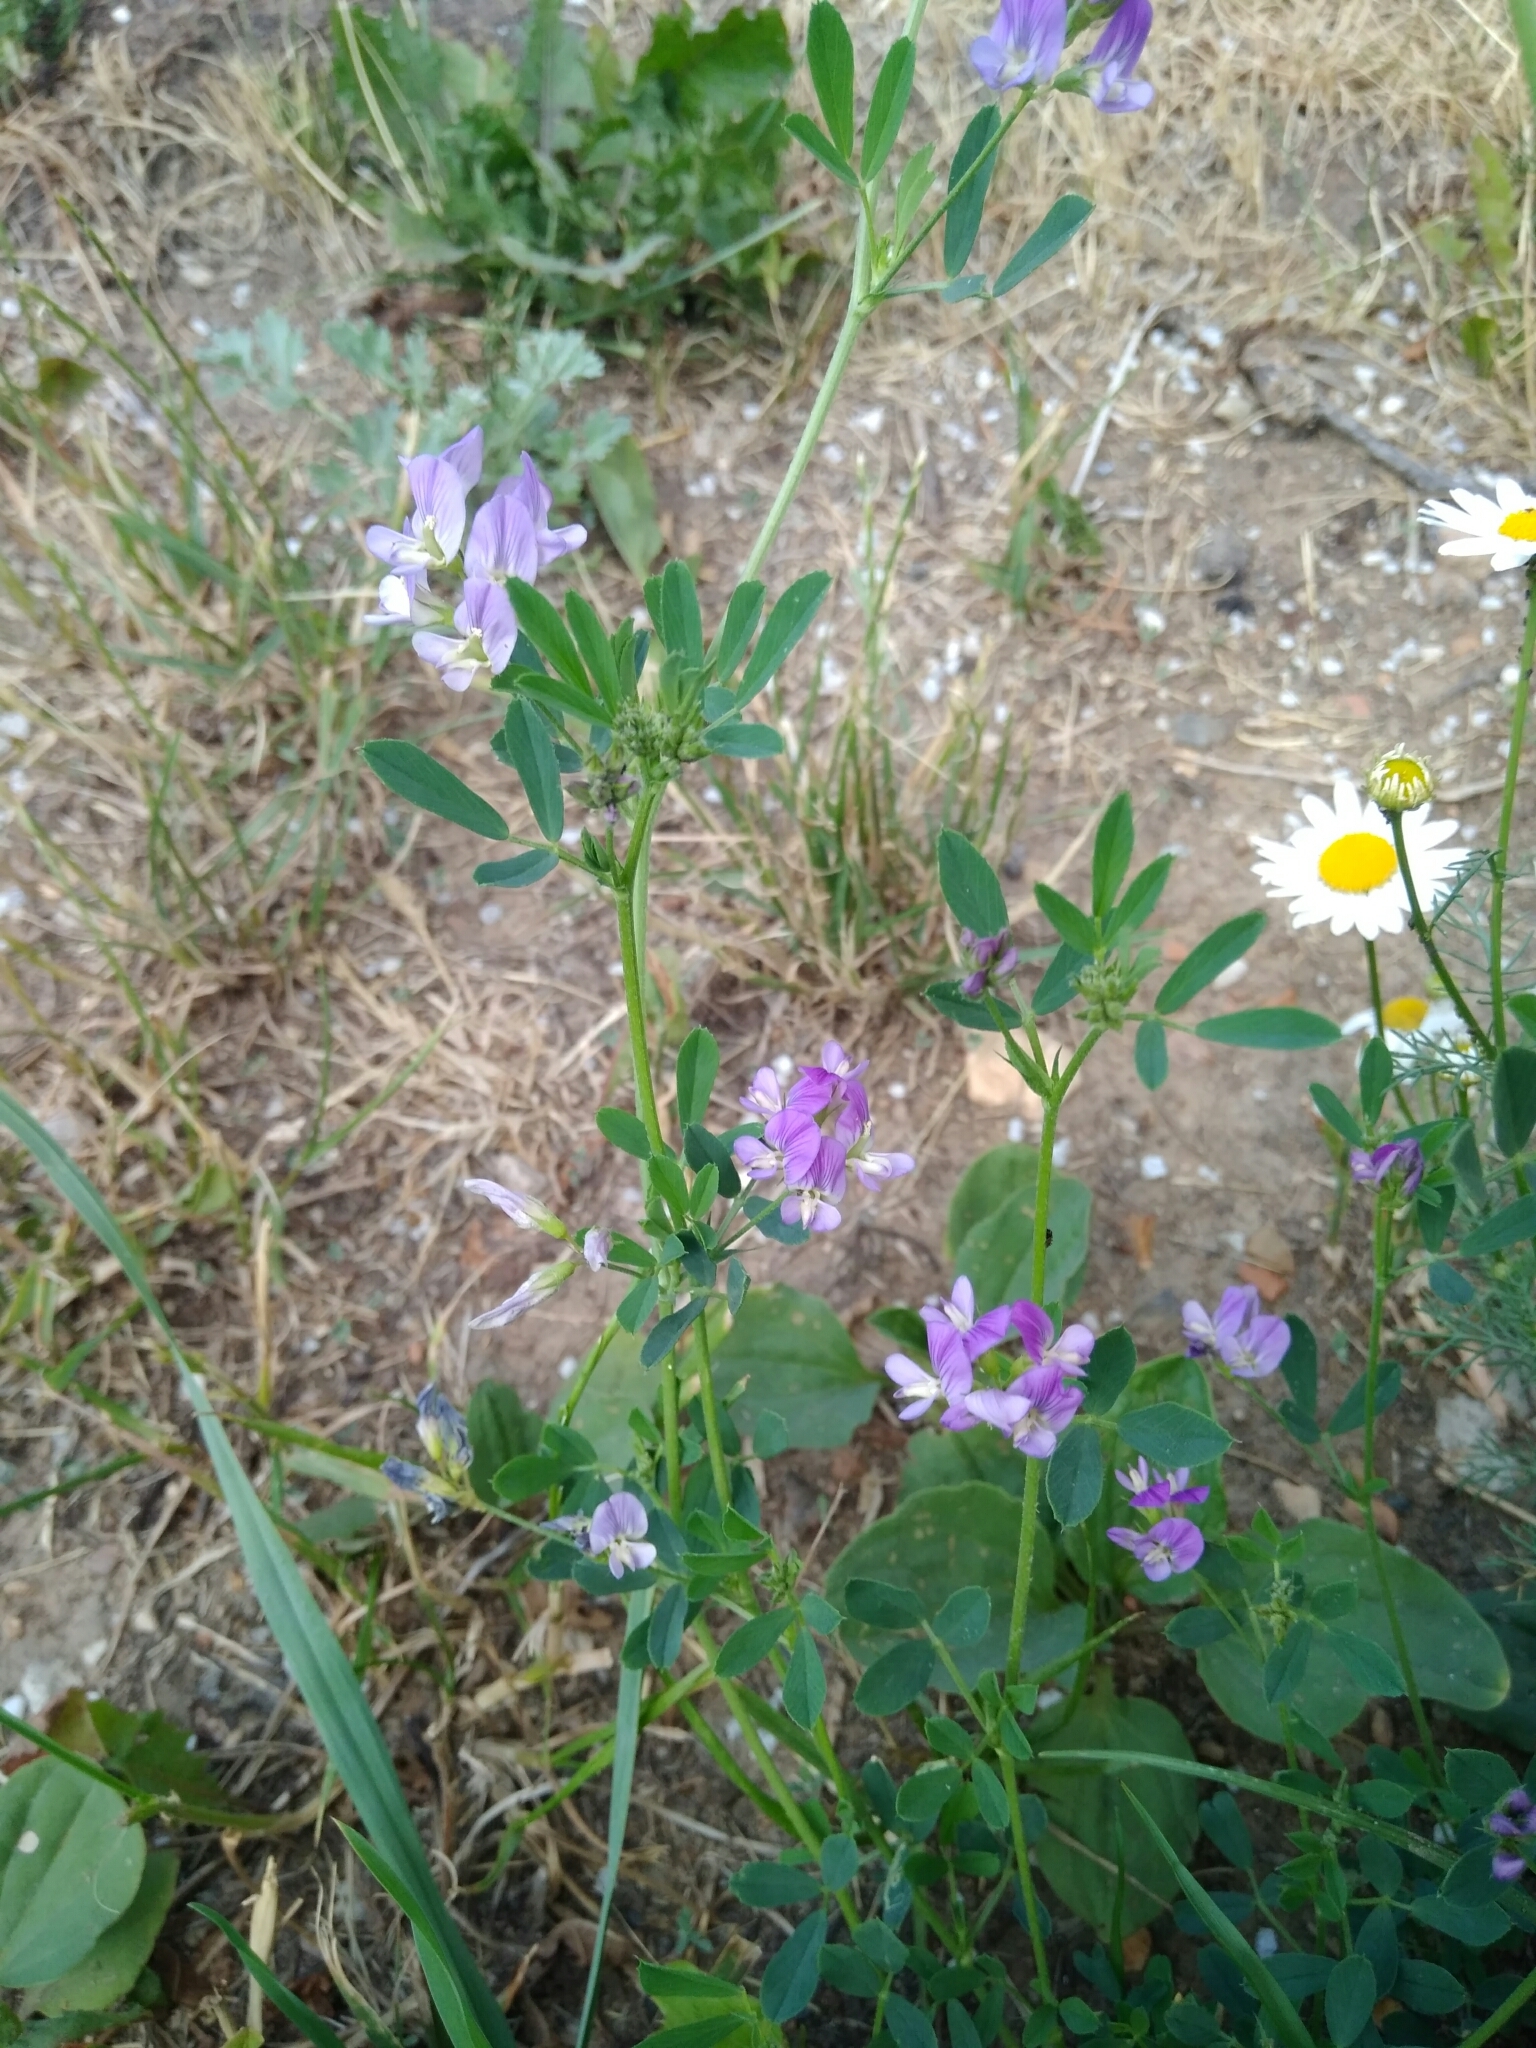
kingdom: Plantae
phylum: Tracheophyta
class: Magnoliopsida
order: Fabales
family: Fabaceae
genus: Medicago
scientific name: Medicago sativa
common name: Alfalfa
